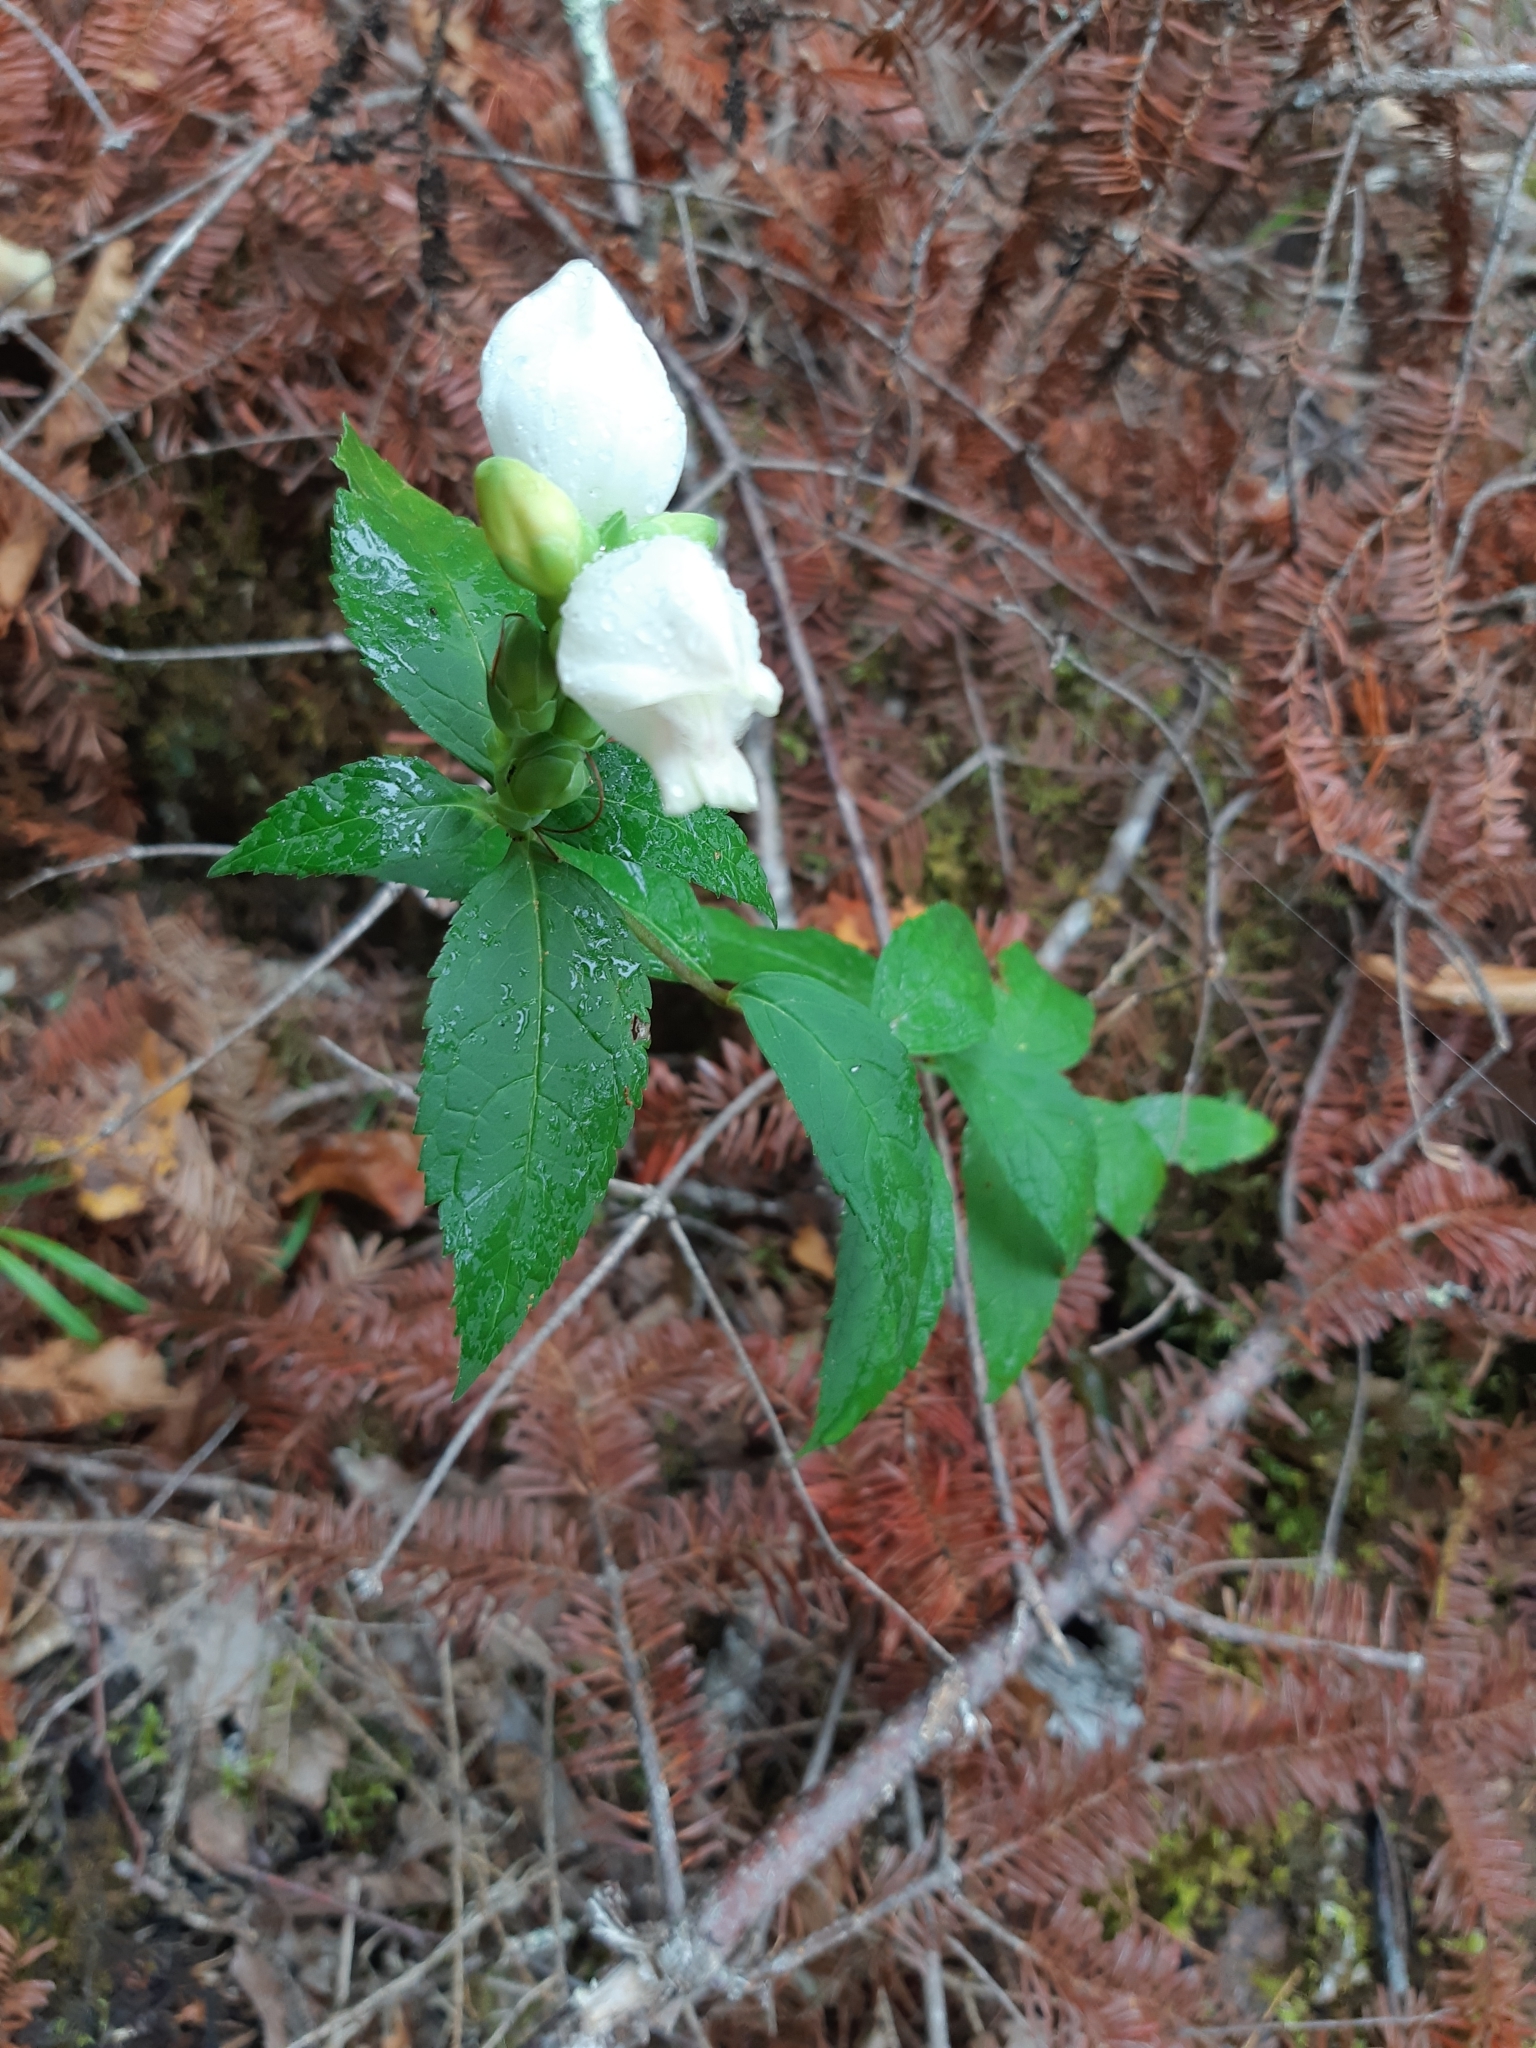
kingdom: Plantae
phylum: Tracheophyta
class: Magnoliopsida
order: Lamiales
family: Plantaginaceae
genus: Chelone
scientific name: Chelone glabra
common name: Snakehead
